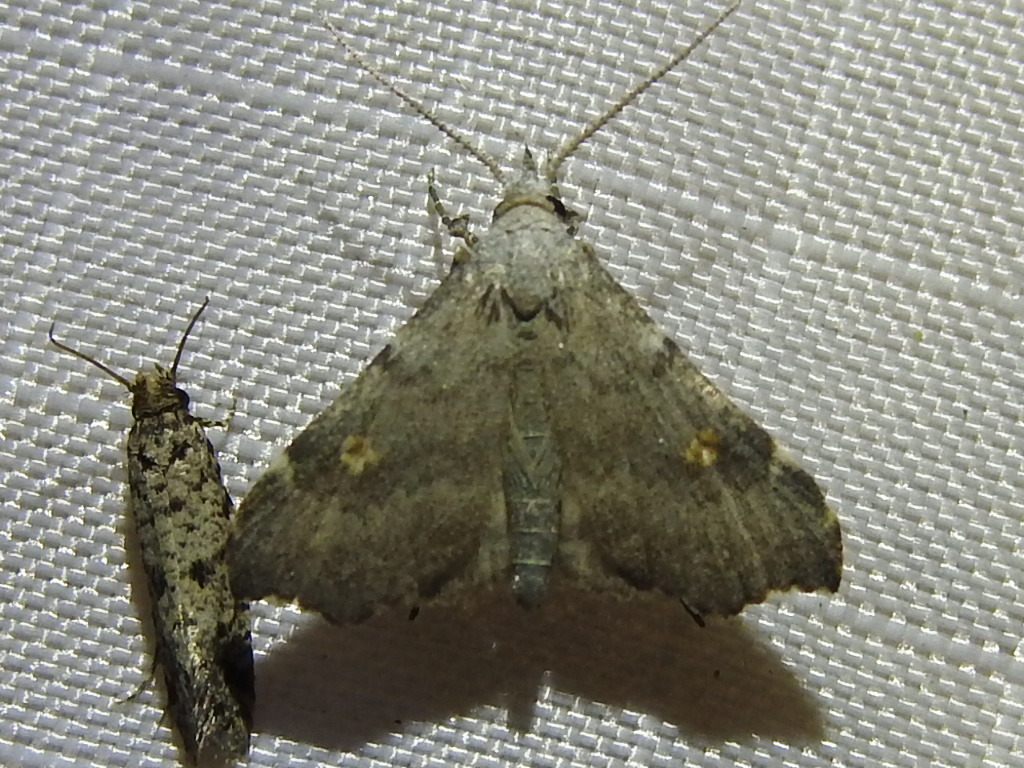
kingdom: Animalia
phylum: Arthropoda
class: Insecta
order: Lepidoptera
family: Erebidae
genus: Redectis
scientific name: Redectis pygmaea
